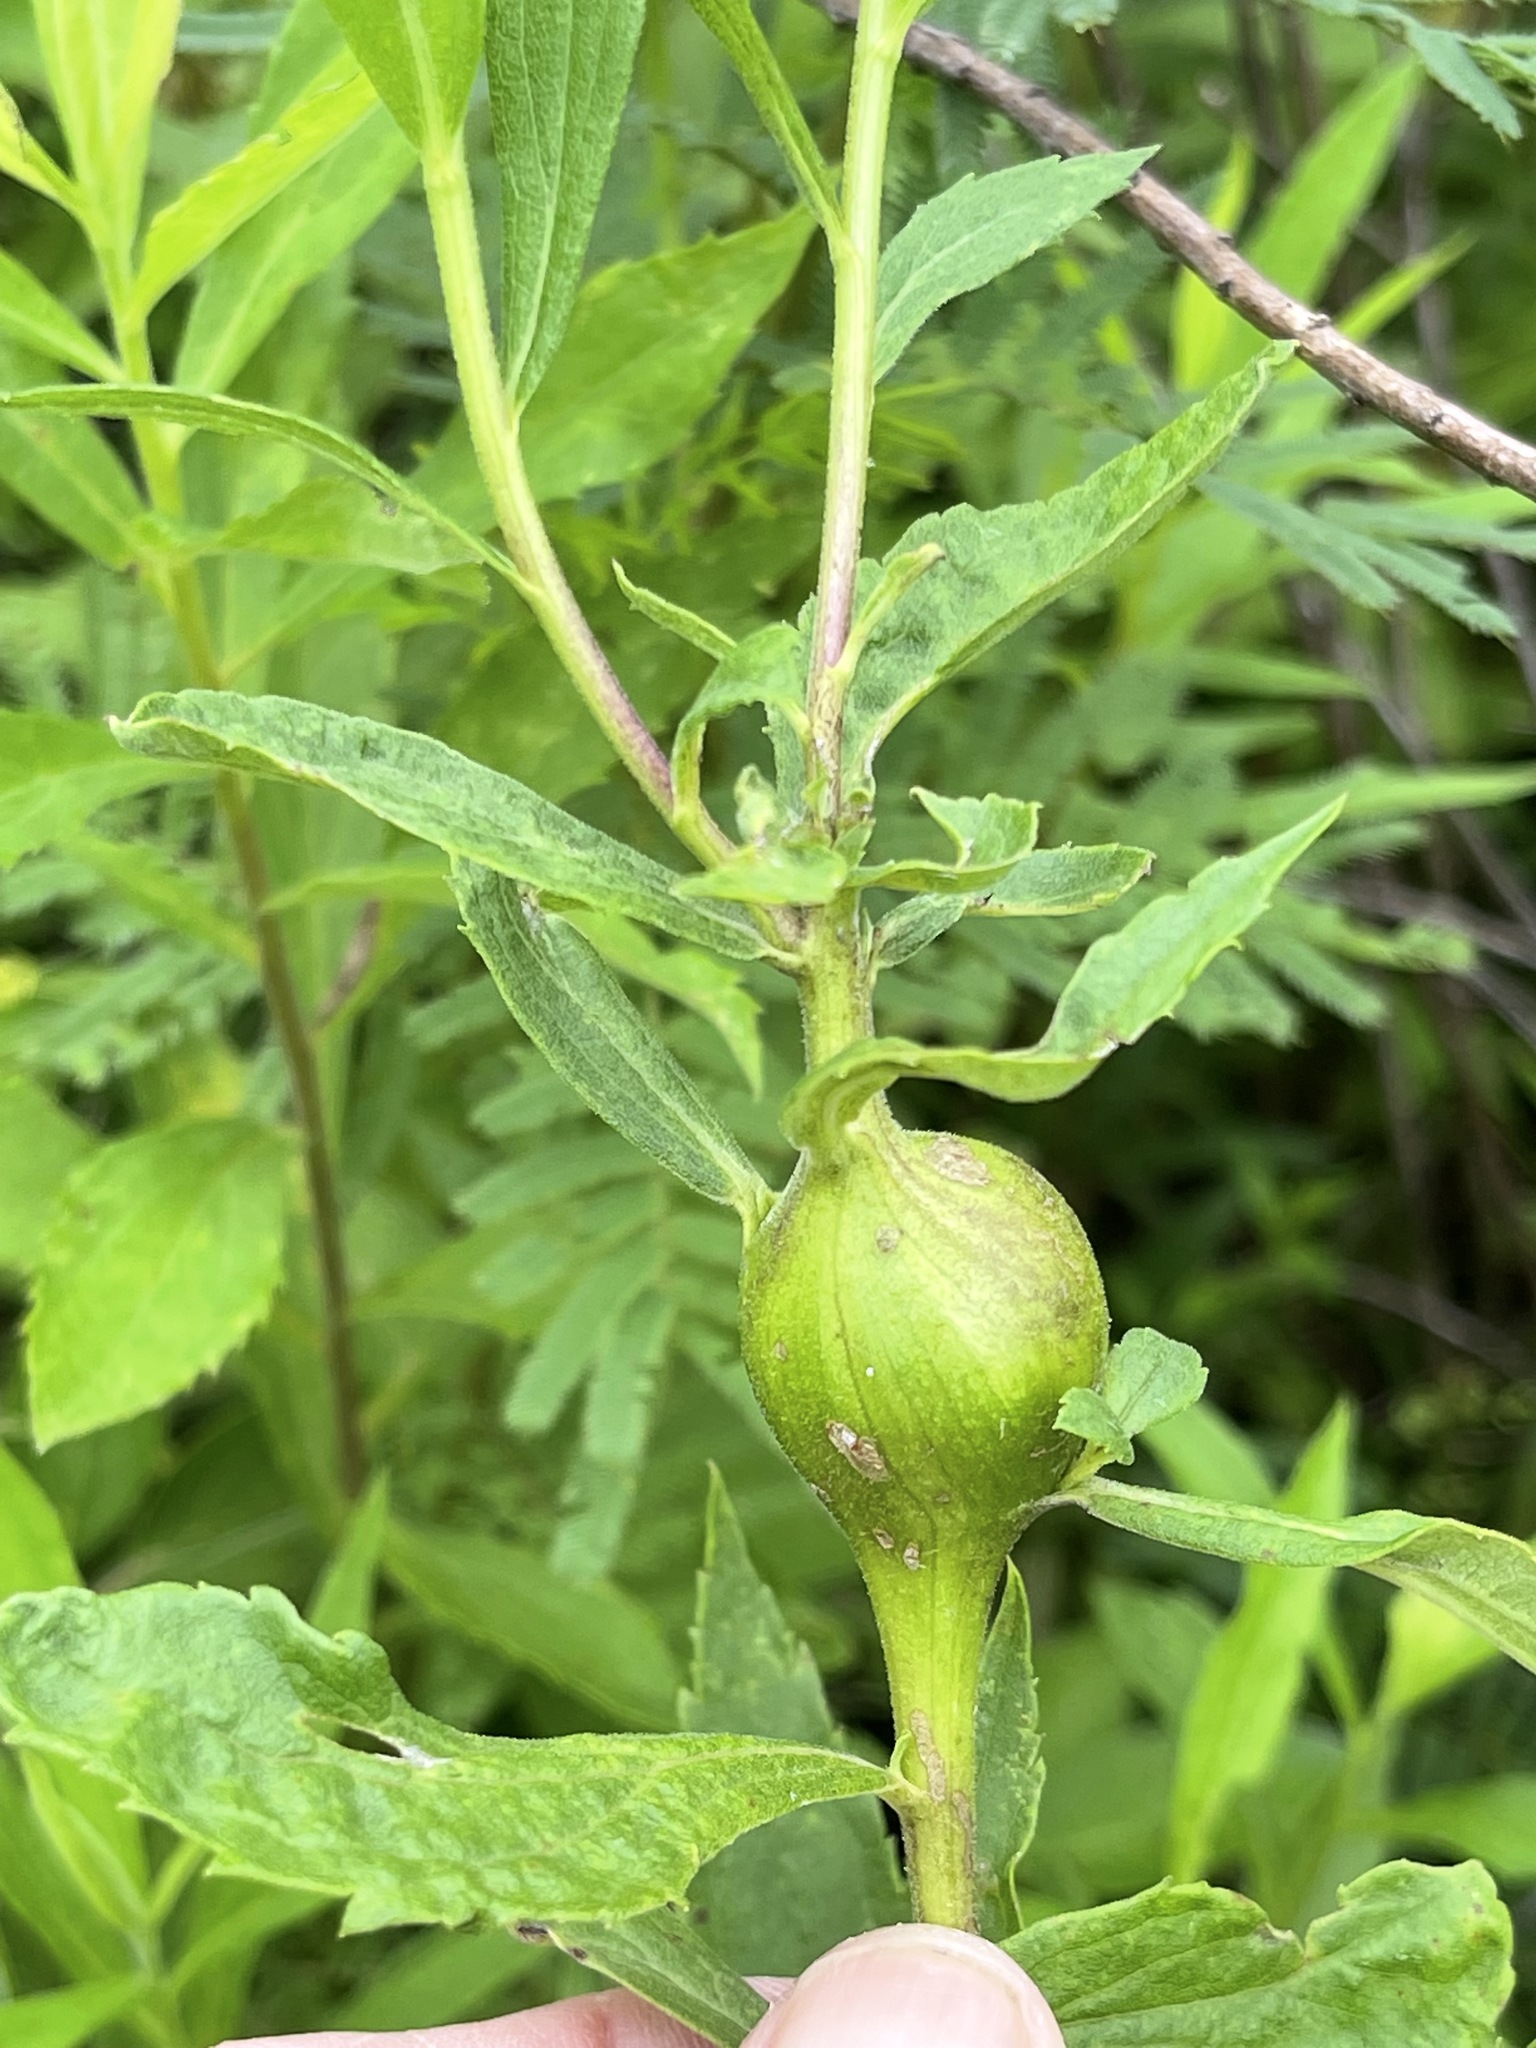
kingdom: Animalia
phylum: Arthropoda
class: Insecta
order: Diptera
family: Tephritidae
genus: Eurosta
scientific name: Eurosta solidaginis
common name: Goldenrod gall fly
